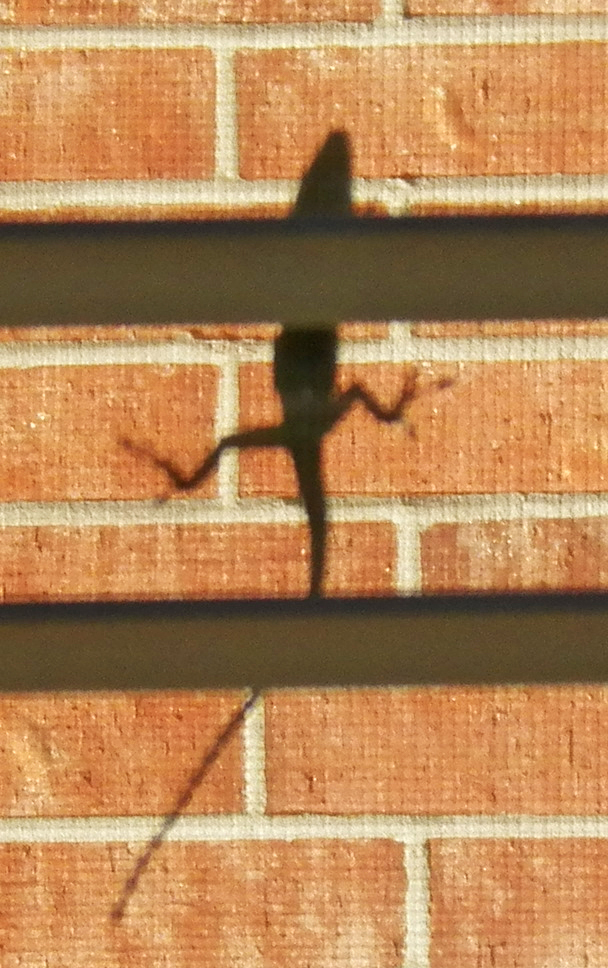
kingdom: Animalia
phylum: Chordata
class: Squamata
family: Dactyloidae
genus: Anolis
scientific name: Anolis carolinensis
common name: Green anole
